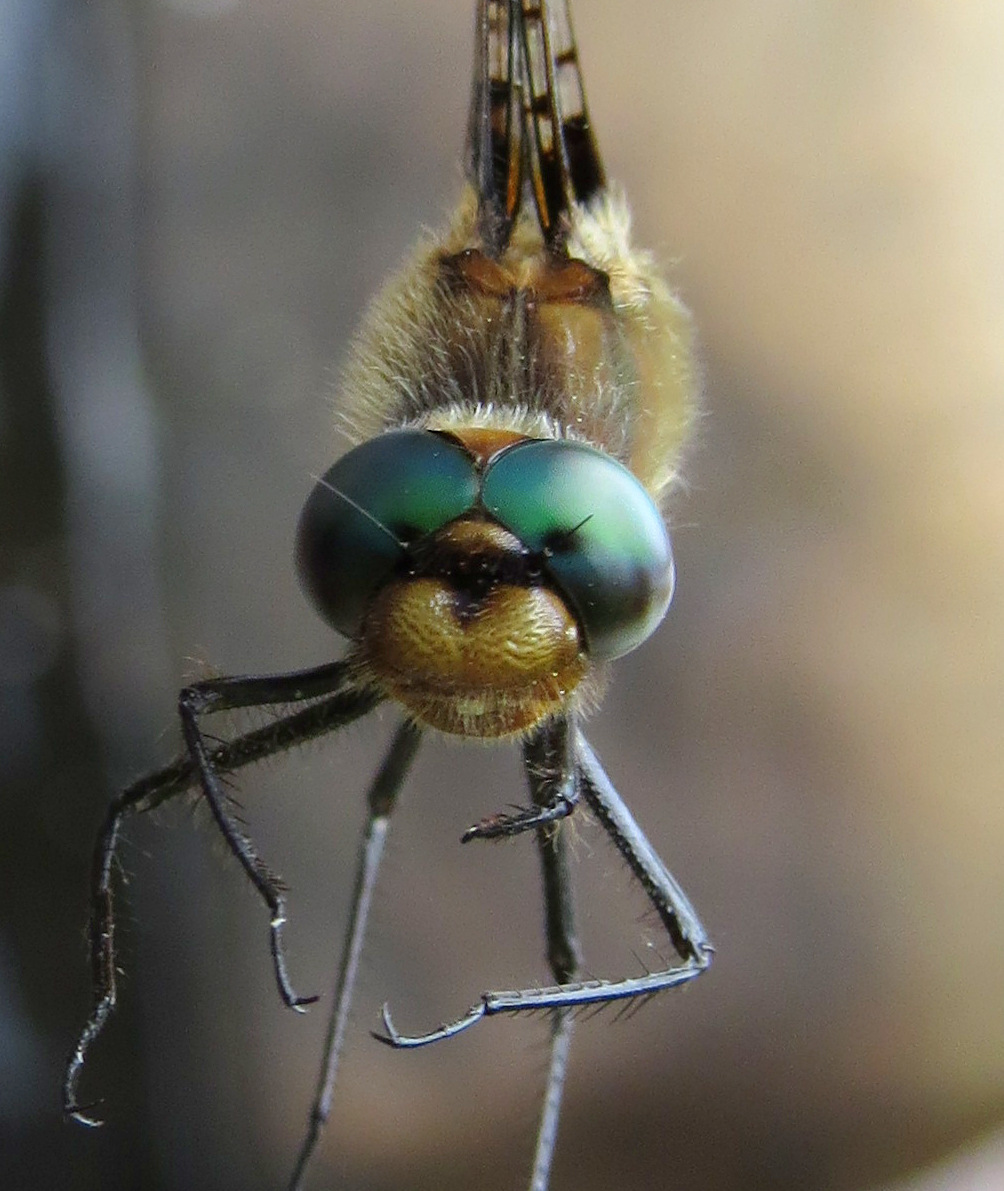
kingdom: Animalia
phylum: Arthropoda
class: Insecta
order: Odonata
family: Corduliidae
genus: Helocordulia
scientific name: Helocordulia uhleri
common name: Uhler's sundragon
